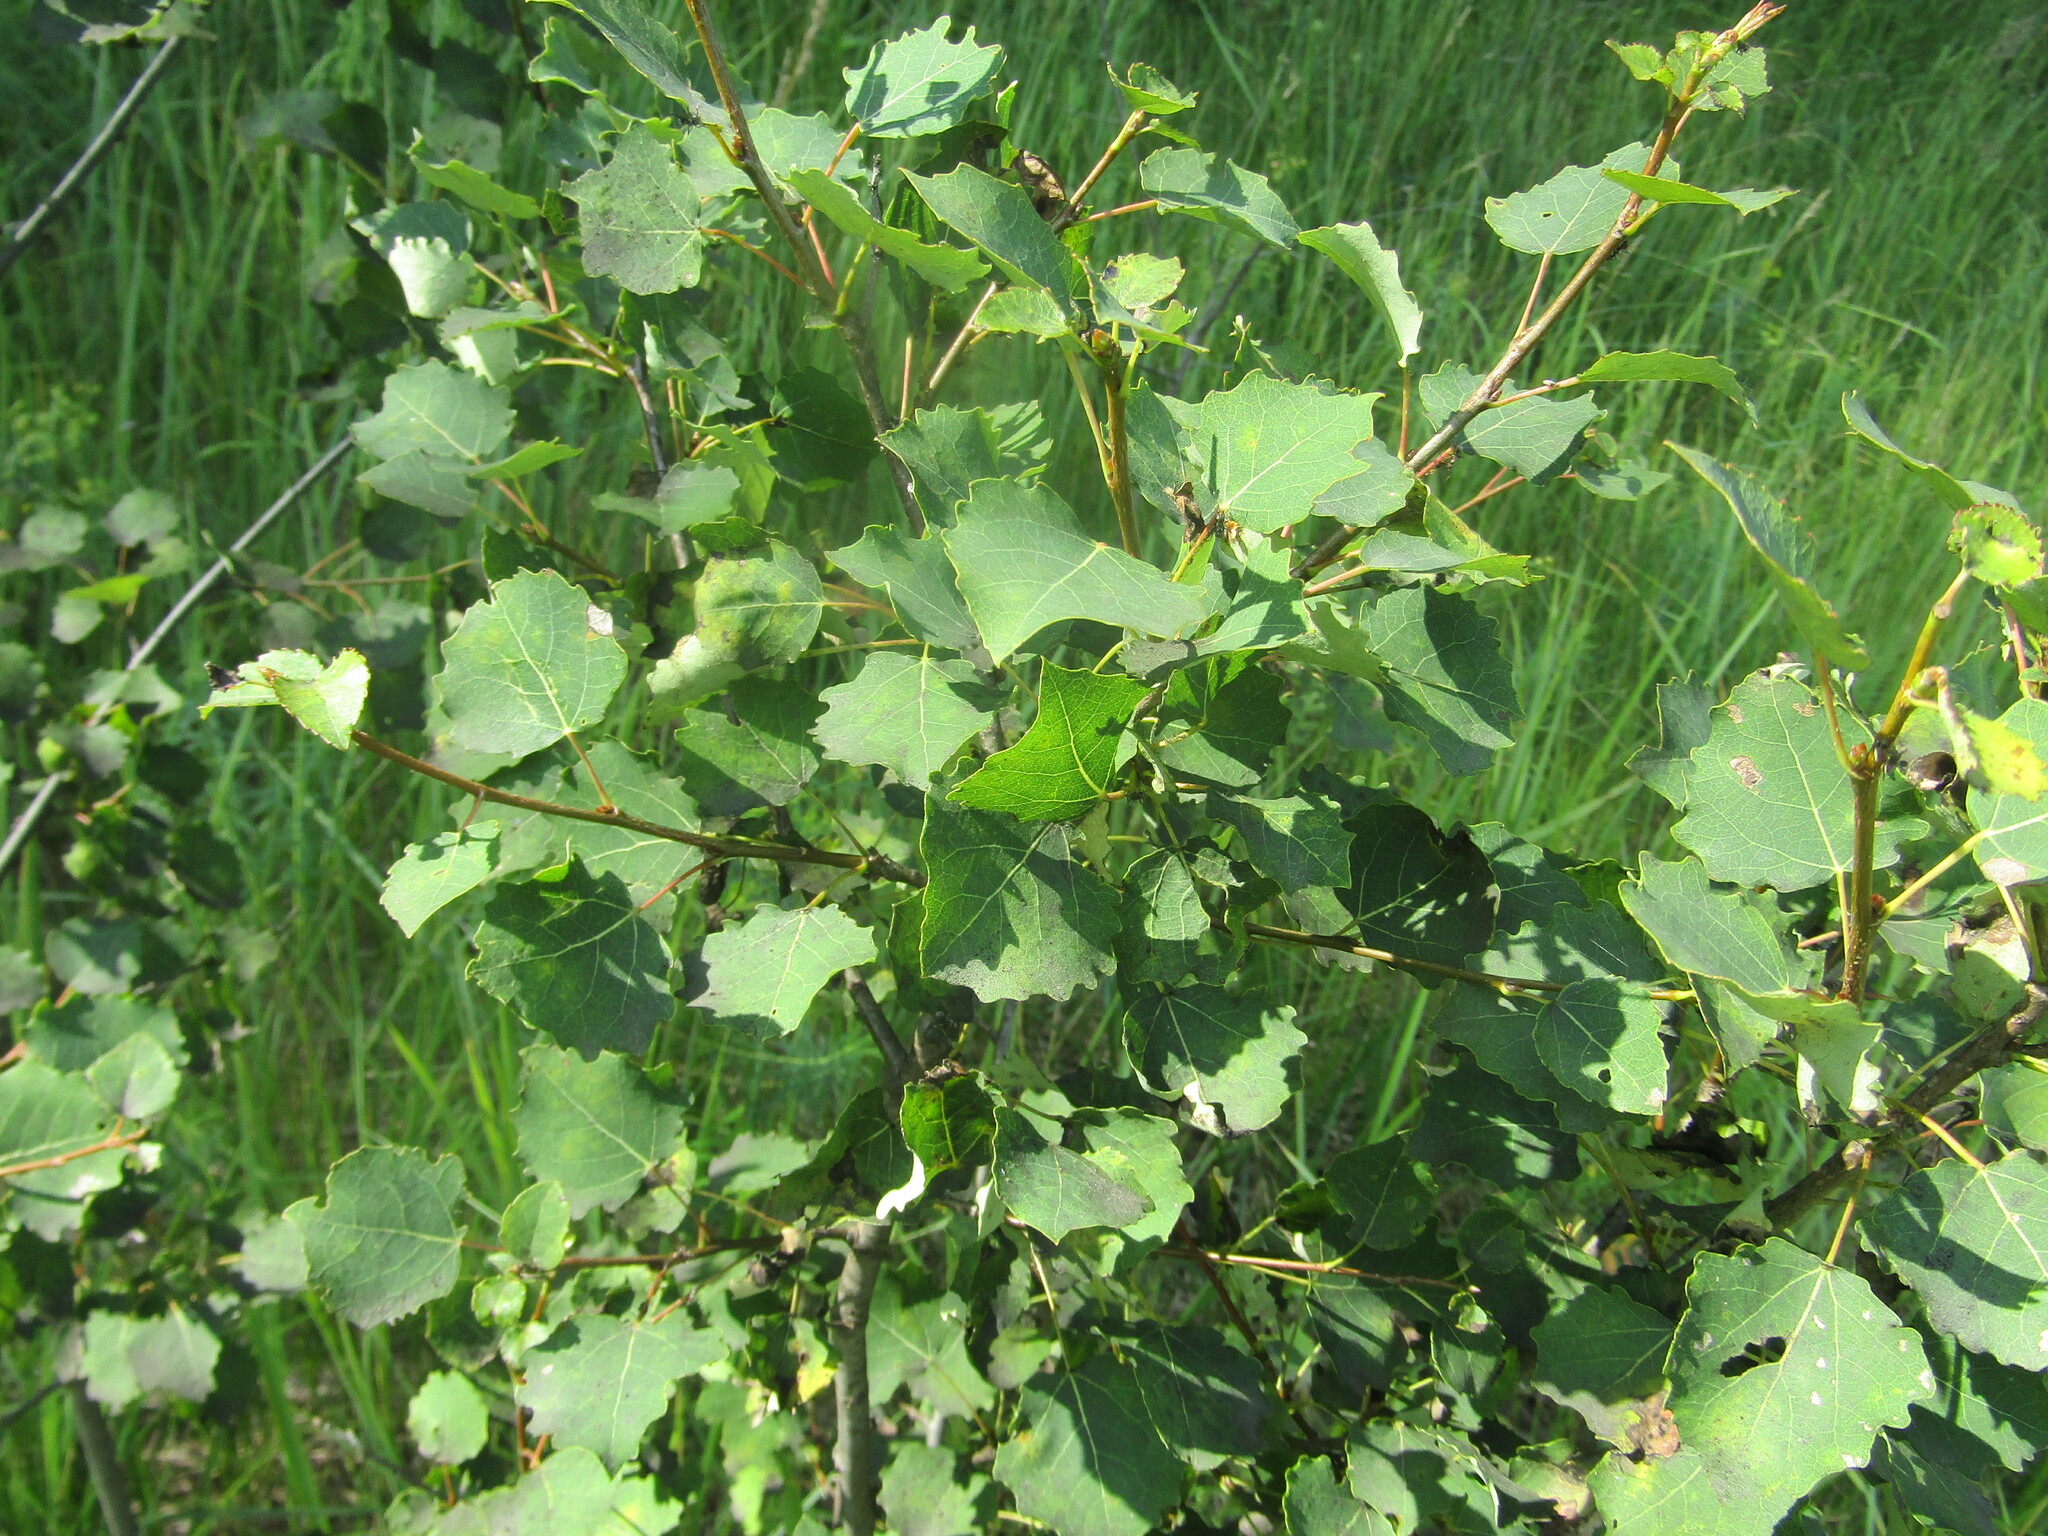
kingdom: Plantae
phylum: Tracheophyta
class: Magnoliopsida
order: Malpighiales
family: Salicaceae
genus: Populus
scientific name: Populus tremula
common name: European aspen
